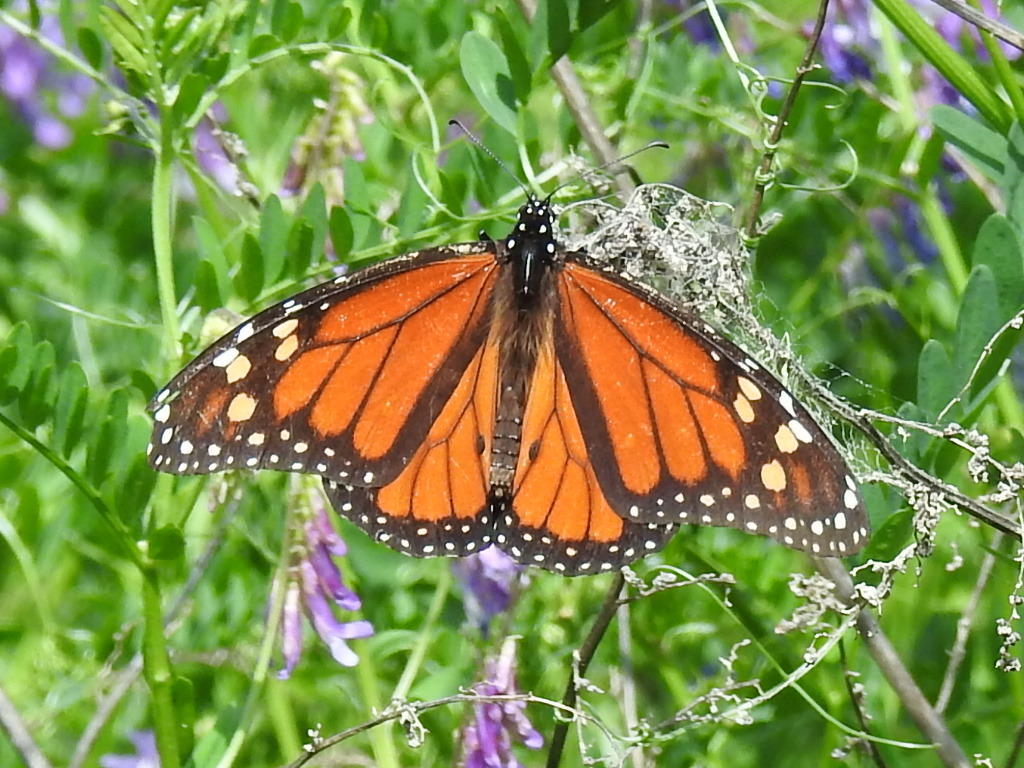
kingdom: Animalia
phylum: Arthropoda
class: Insecta
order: Lepidoptera
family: Nymphalidae
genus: Danaus
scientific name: Danaus plexippus
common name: Monarch
